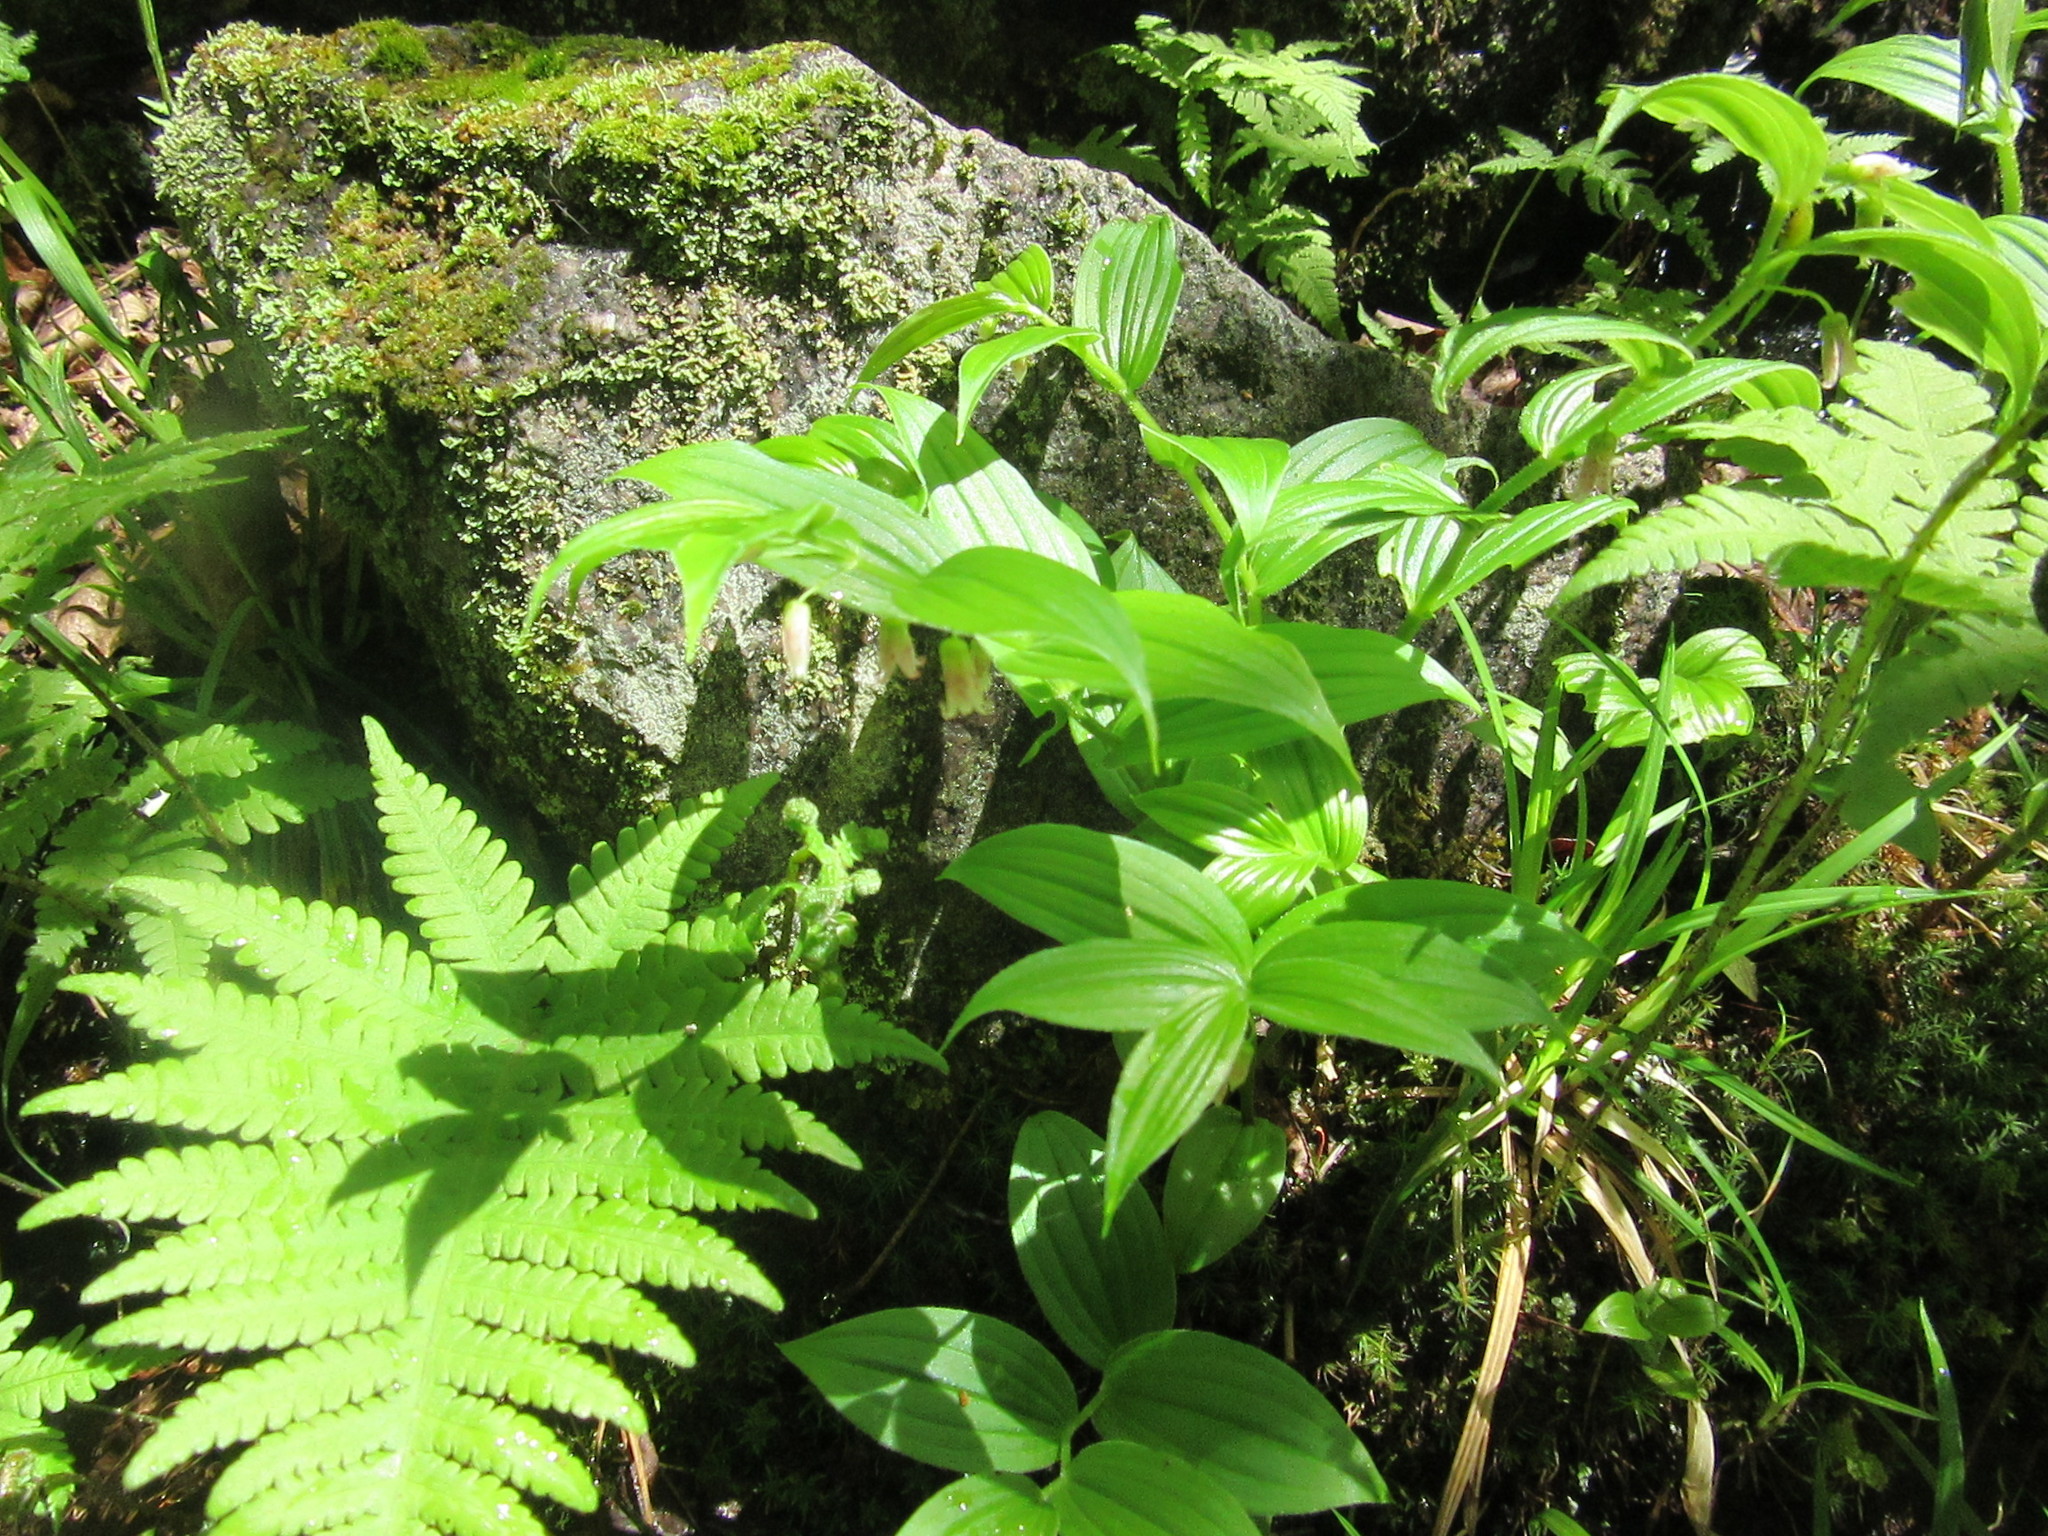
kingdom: Plantae
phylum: Tracheophyta
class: Liliopsida
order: Liliales
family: Liliaceae
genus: Streptopus
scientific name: Streptopus lanceolatus
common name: Rose mandarin
